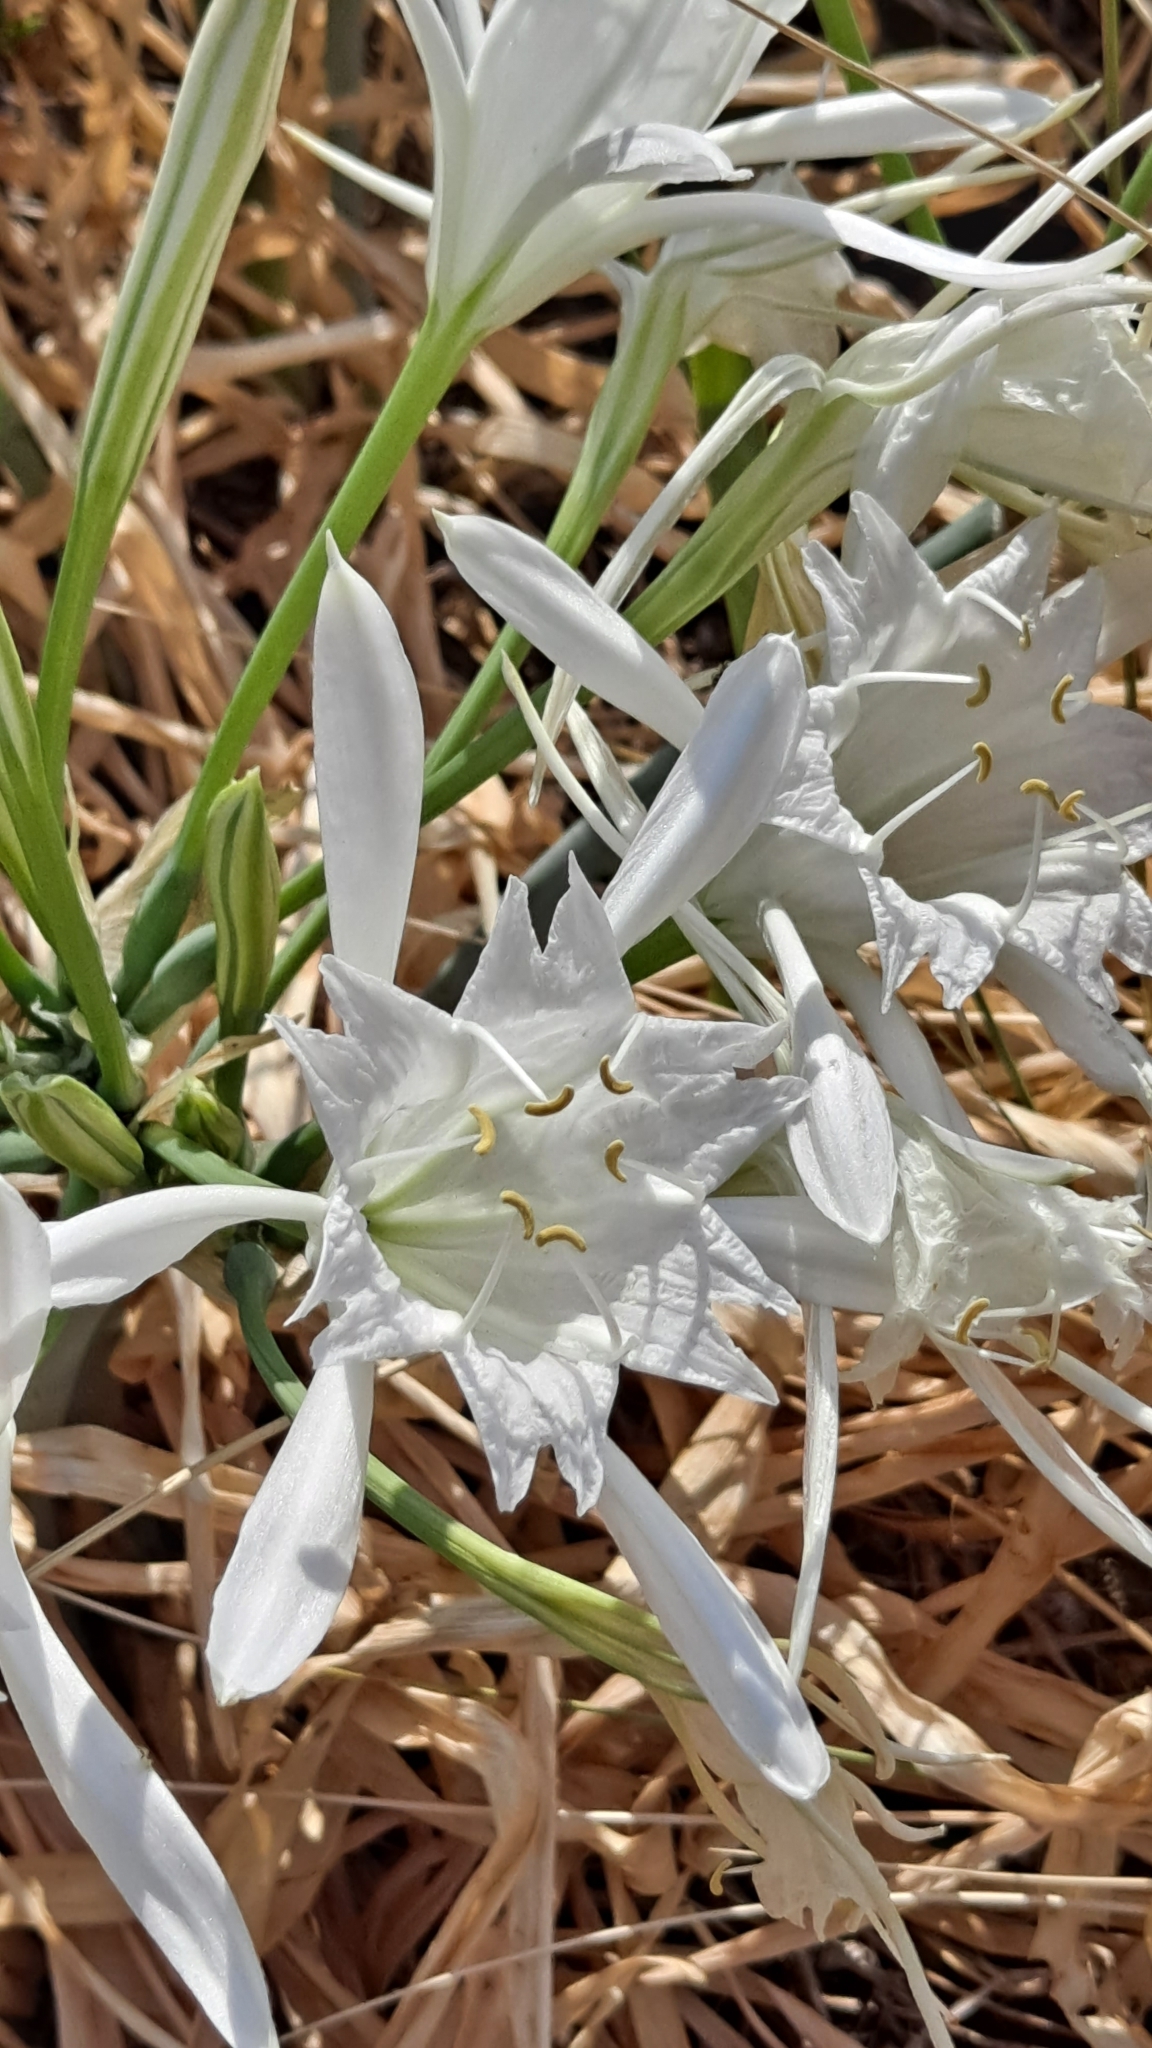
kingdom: Plantae
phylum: Tracheophyta
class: Liliopsida
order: Asparagales
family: Amaryllidaceae
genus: Pancratium
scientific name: Pancratium maritimum
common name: Sea-daffodil
